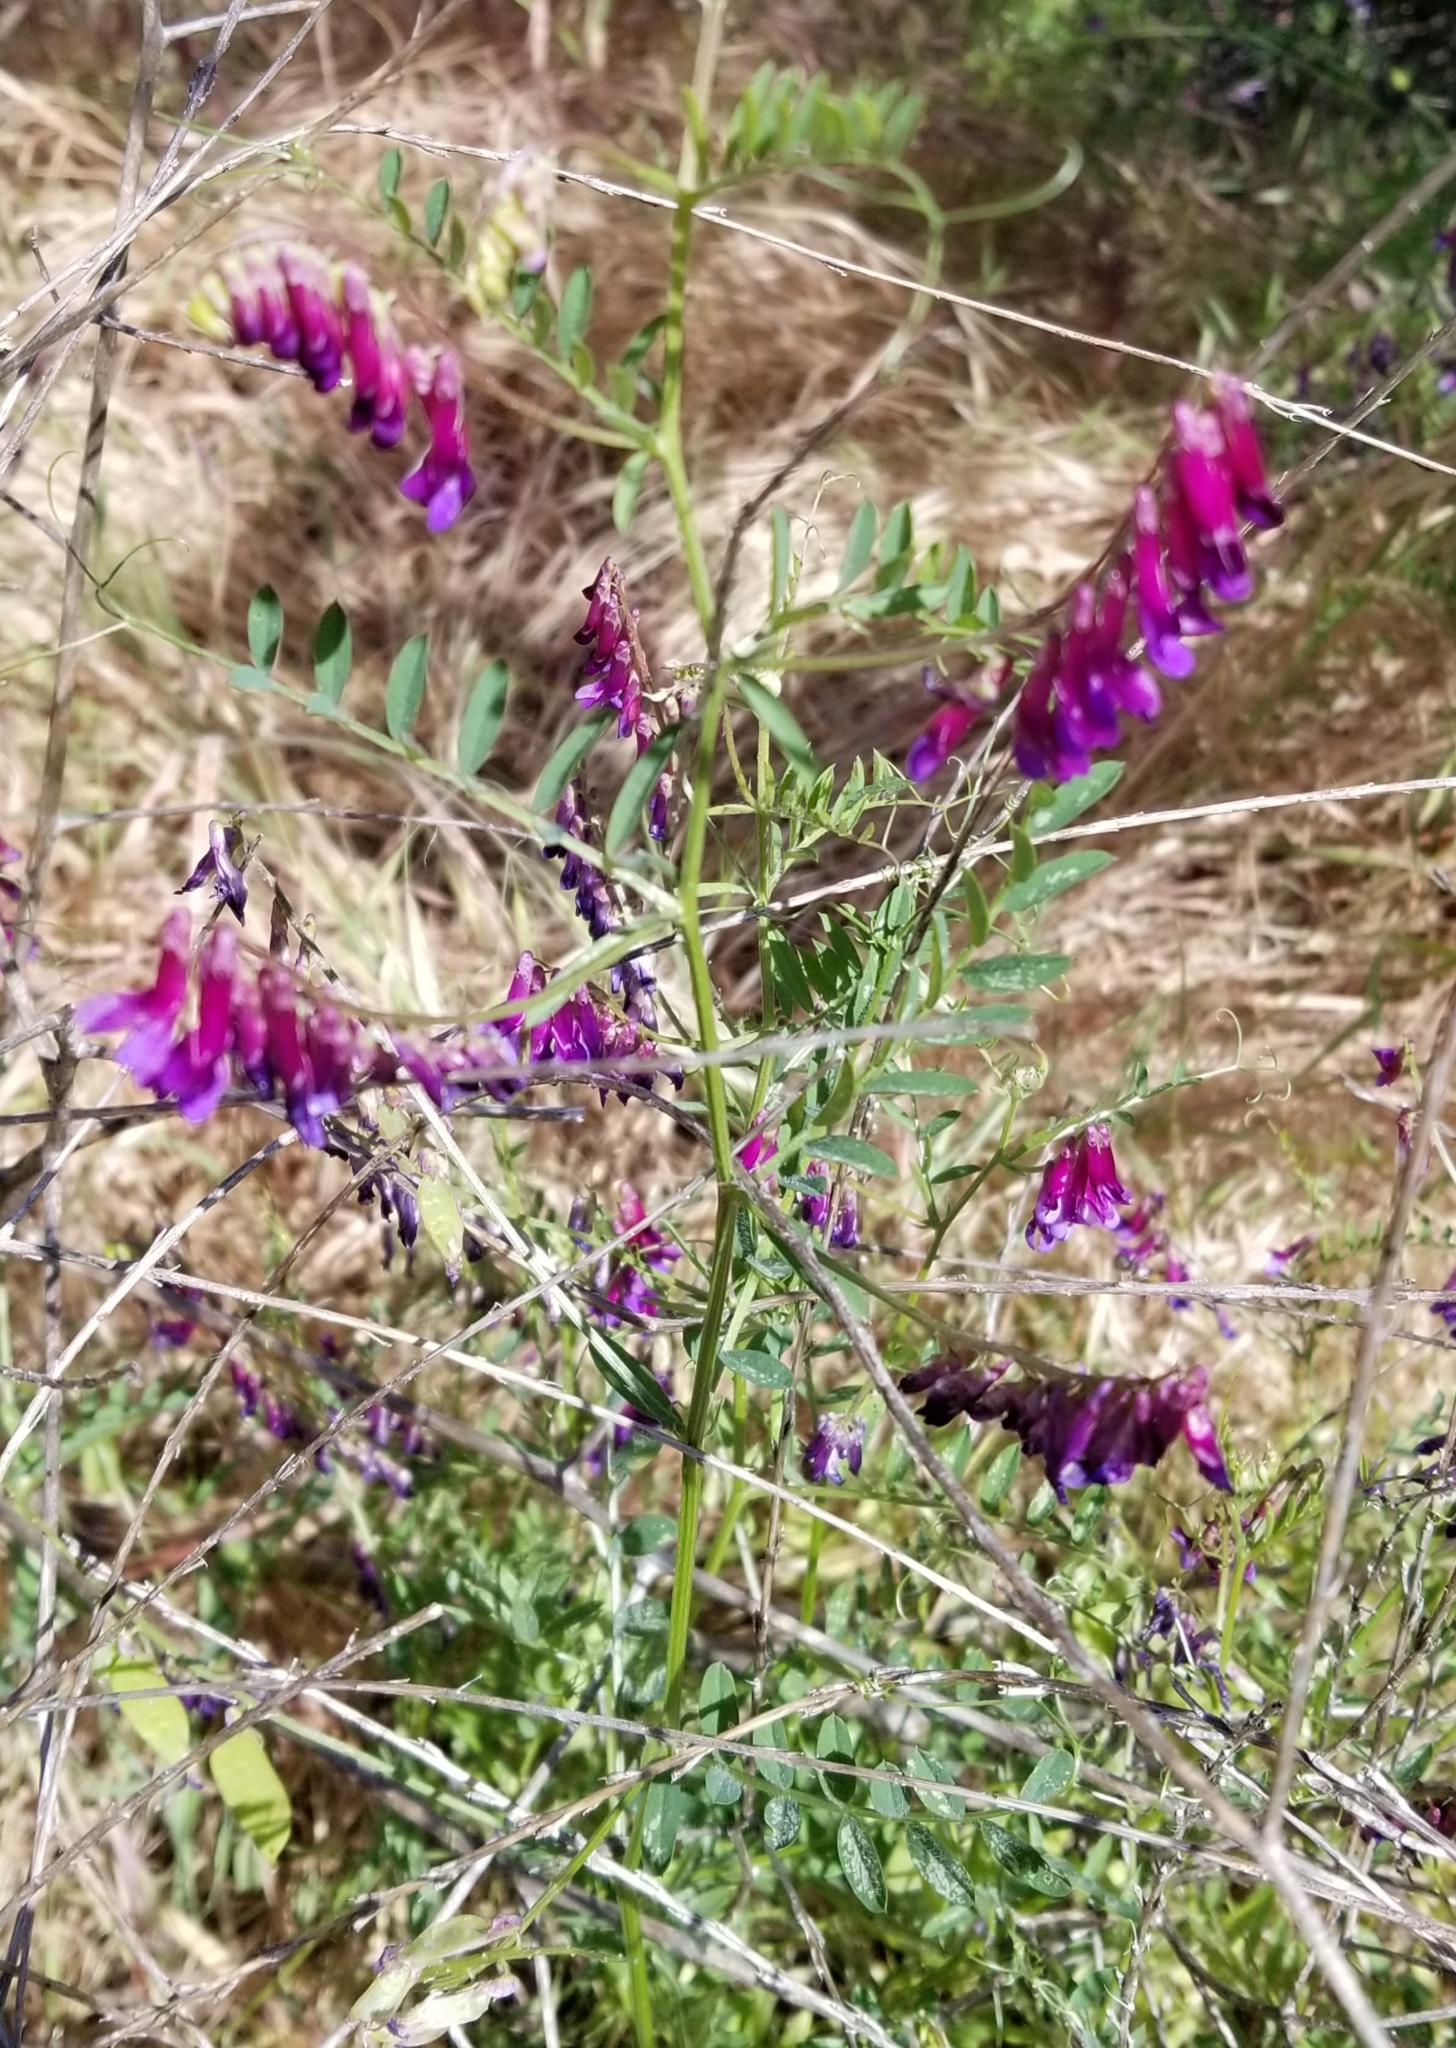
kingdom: Plantae
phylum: Tracheophyta
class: Magnoliopsida
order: Fabales
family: Fabaceae
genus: Vicia
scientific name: Vicia villosa
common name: Fodder vetch
